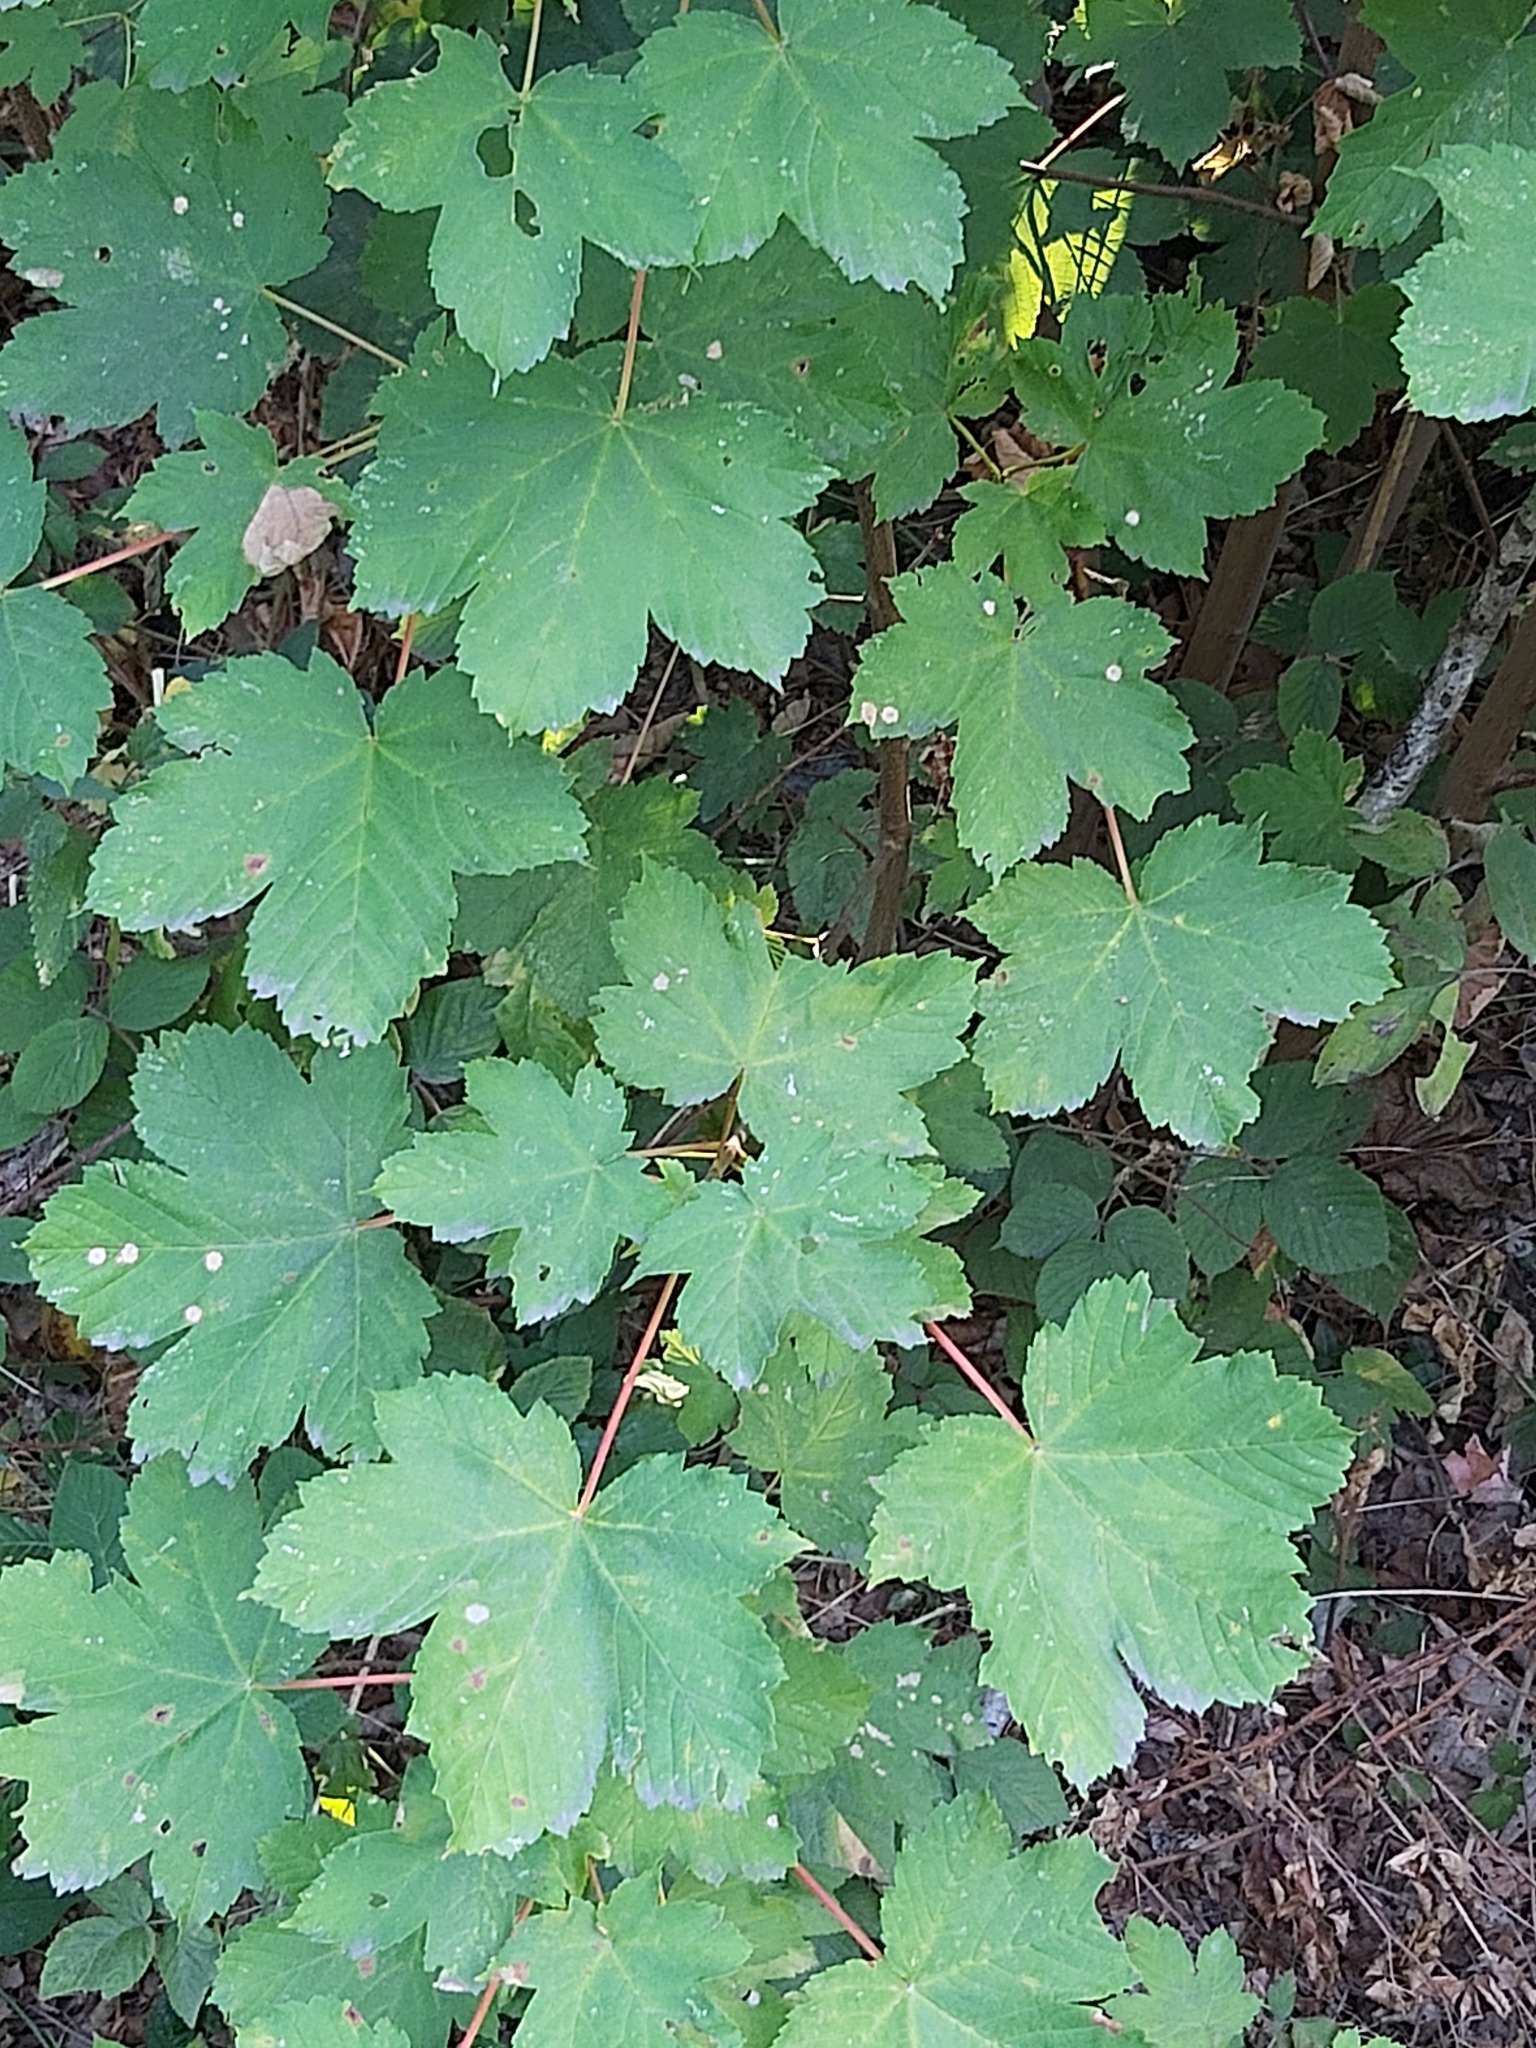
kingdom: Plantae
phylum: Tracheophyta
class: Magnoliopsida
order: Sapindales
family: Sapindaceae
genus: Acer
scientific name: Acer pseudoplatanus
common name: Sycamore
